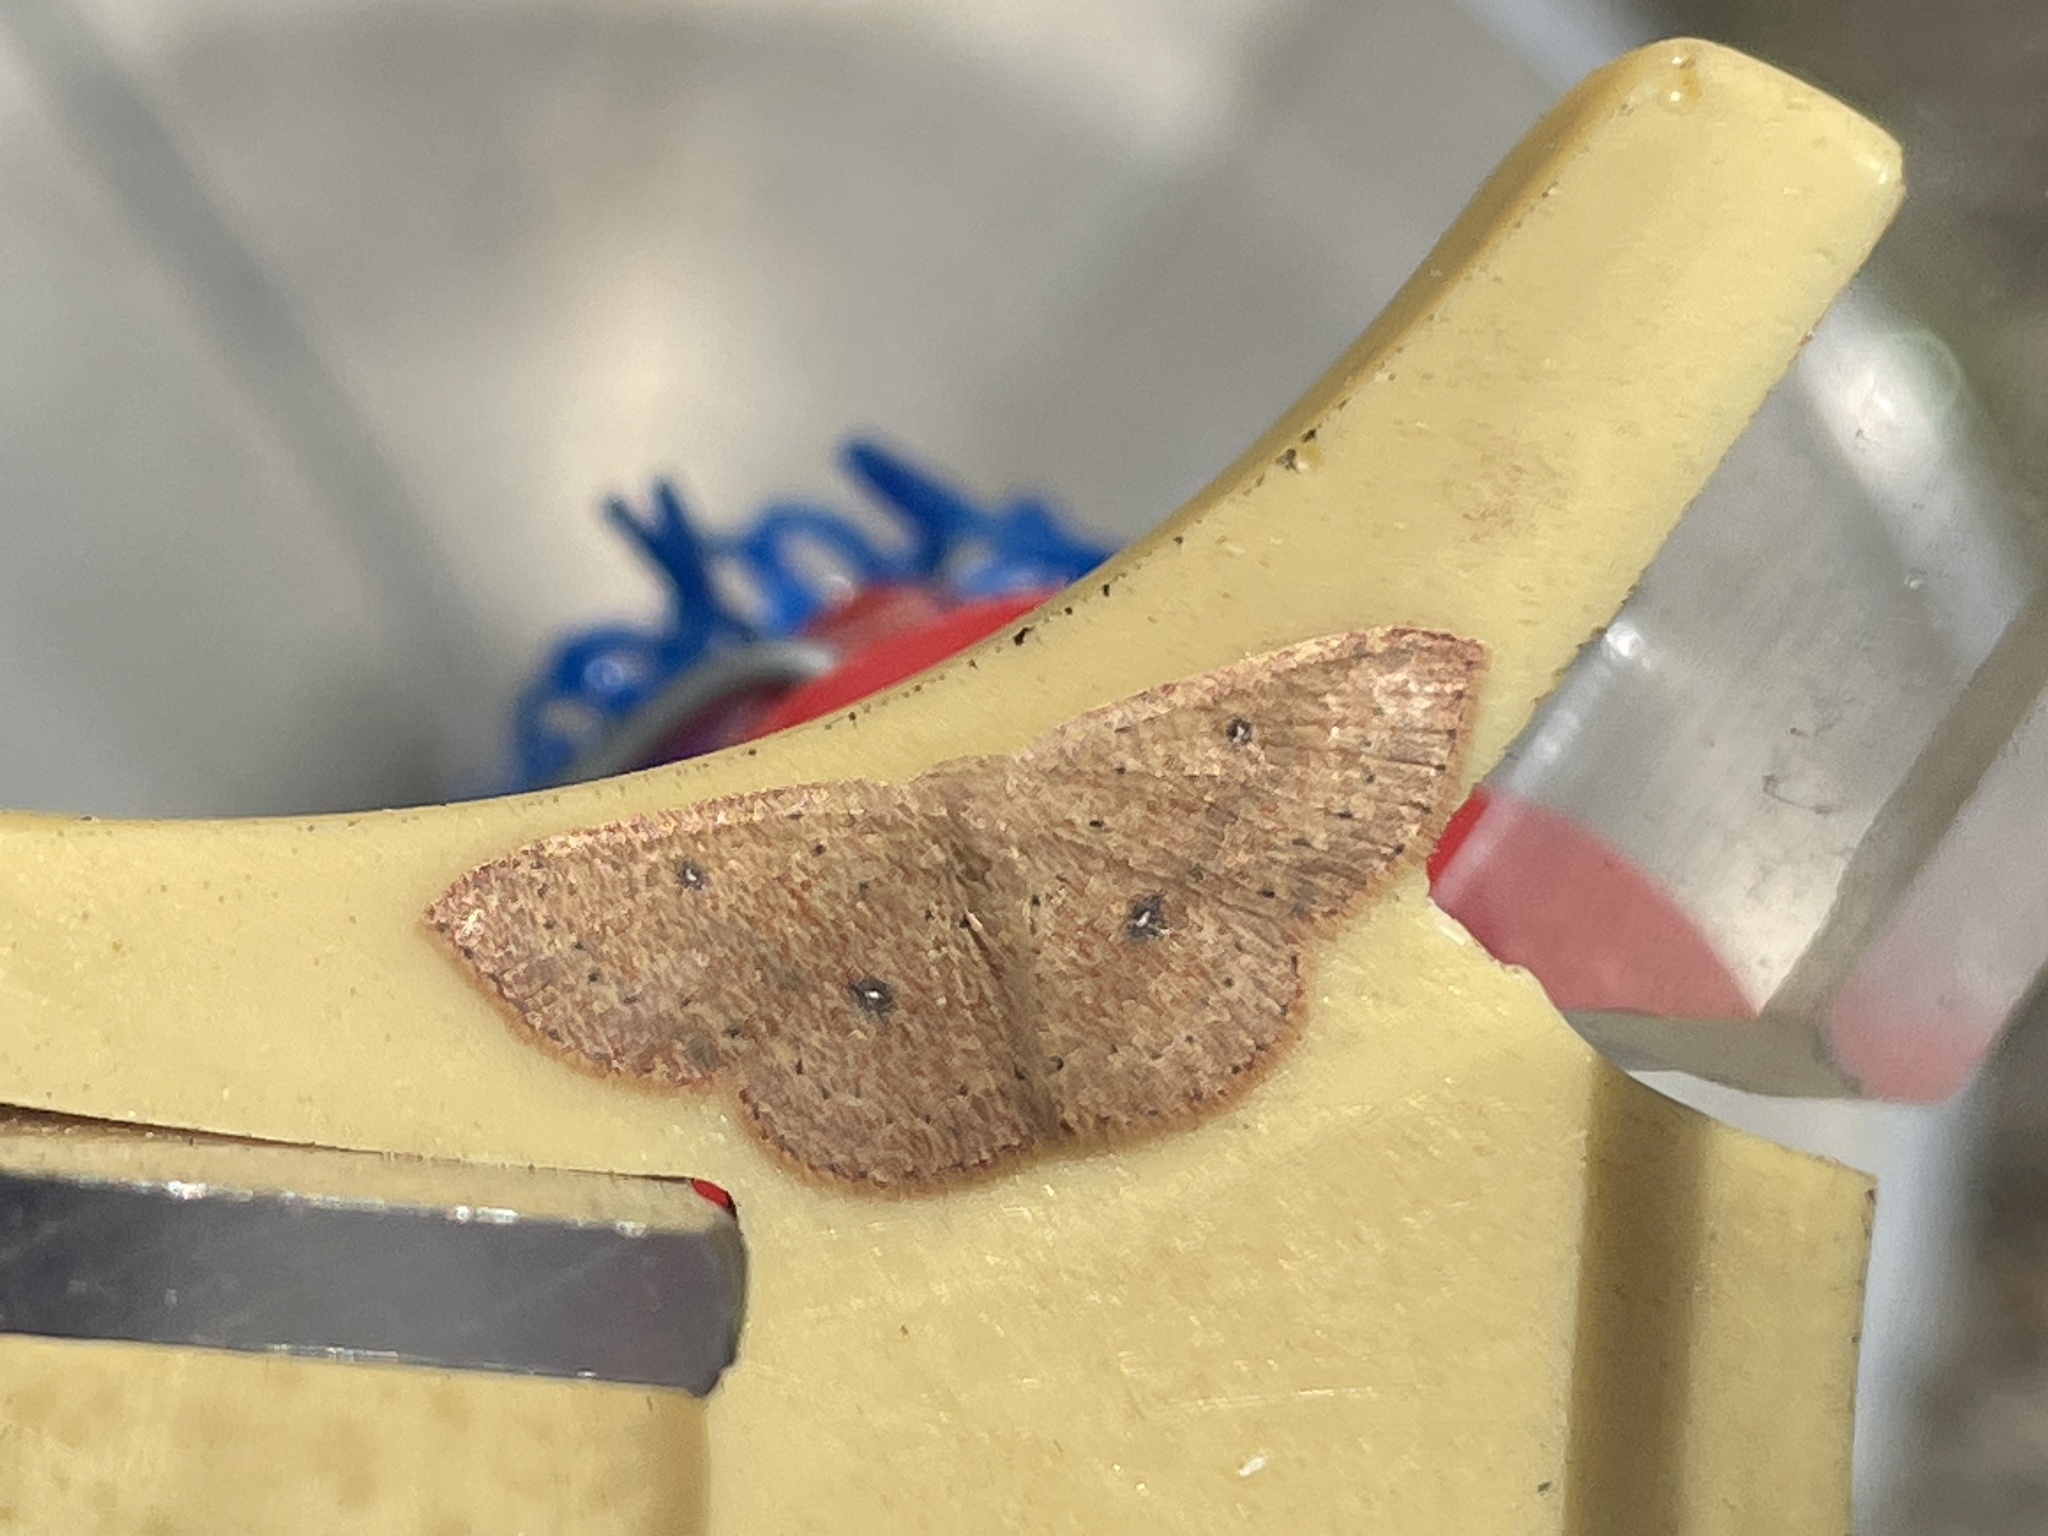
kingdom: Animalia
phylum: Arthropoda
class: Insecta
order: Lepidoptera
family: Geometridae
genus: Cyclophora
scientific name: Cyclophora packardi
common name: Packard's wave
